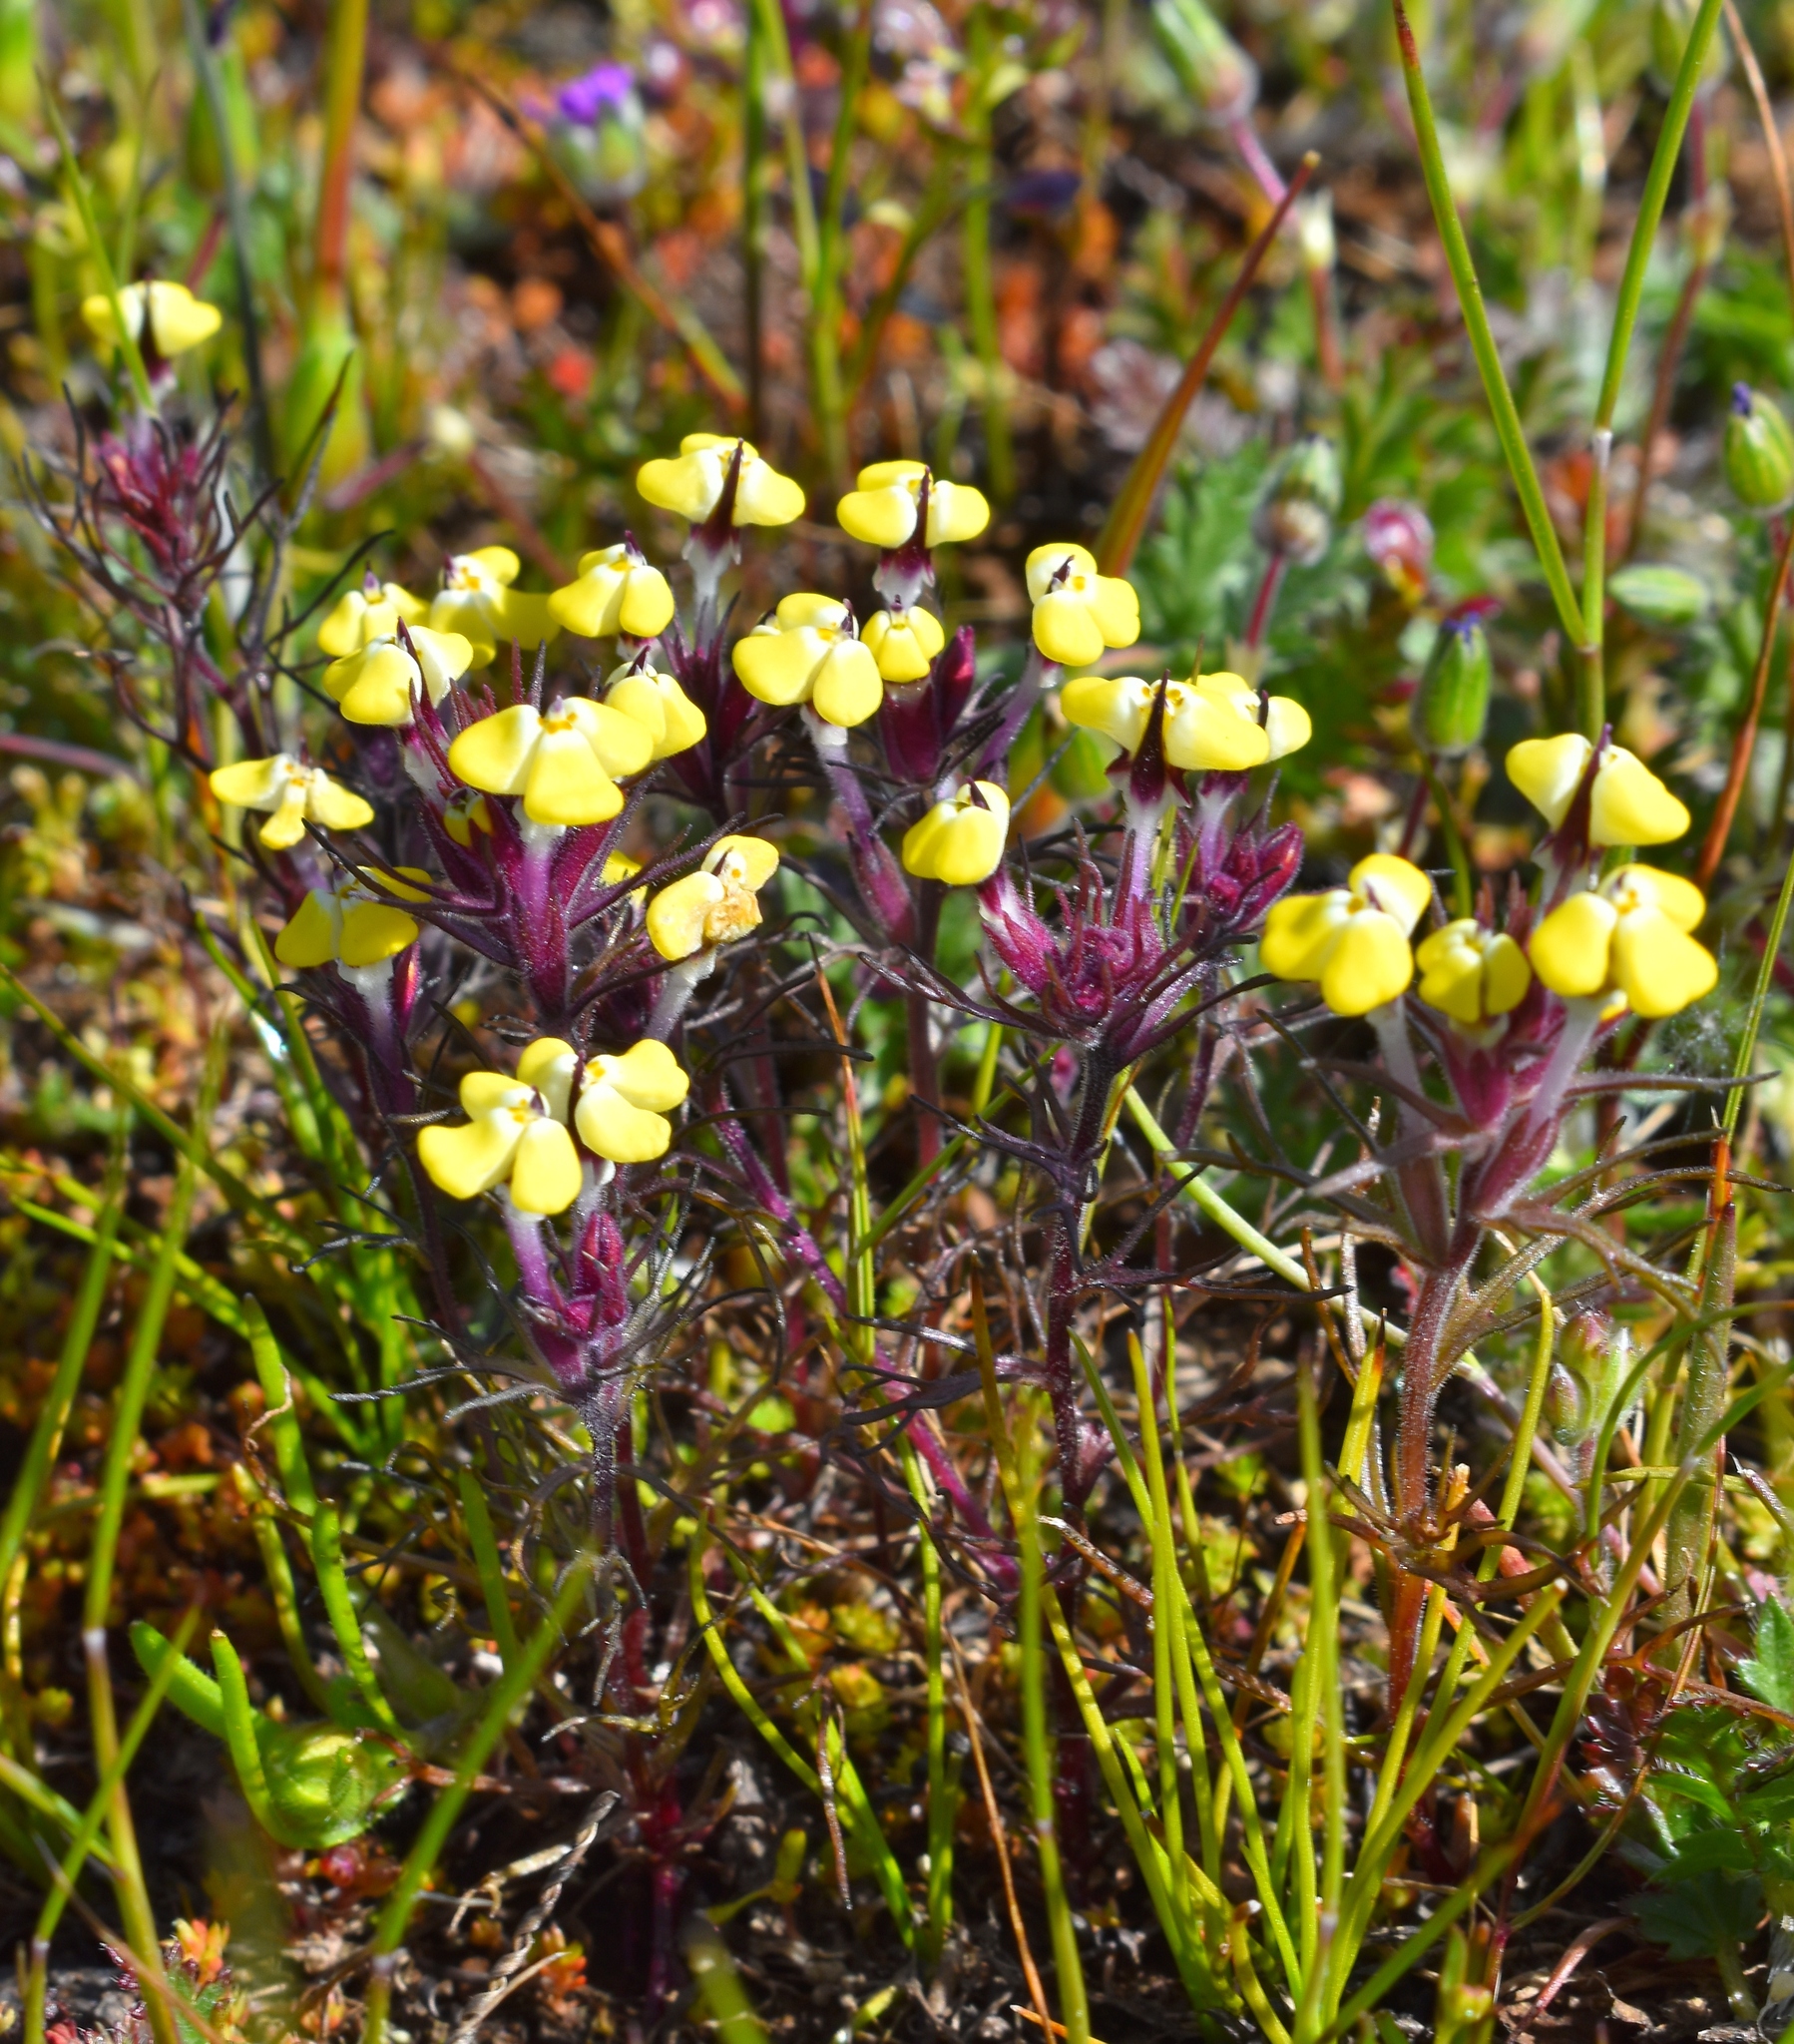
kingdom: Plantae
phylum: Tracheophyta
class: Magnoliopsida
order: Lamiales
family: Orobanchaceae
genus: Triphysaria
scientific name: Triphysaria eriantha
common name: Johnny-tuck
